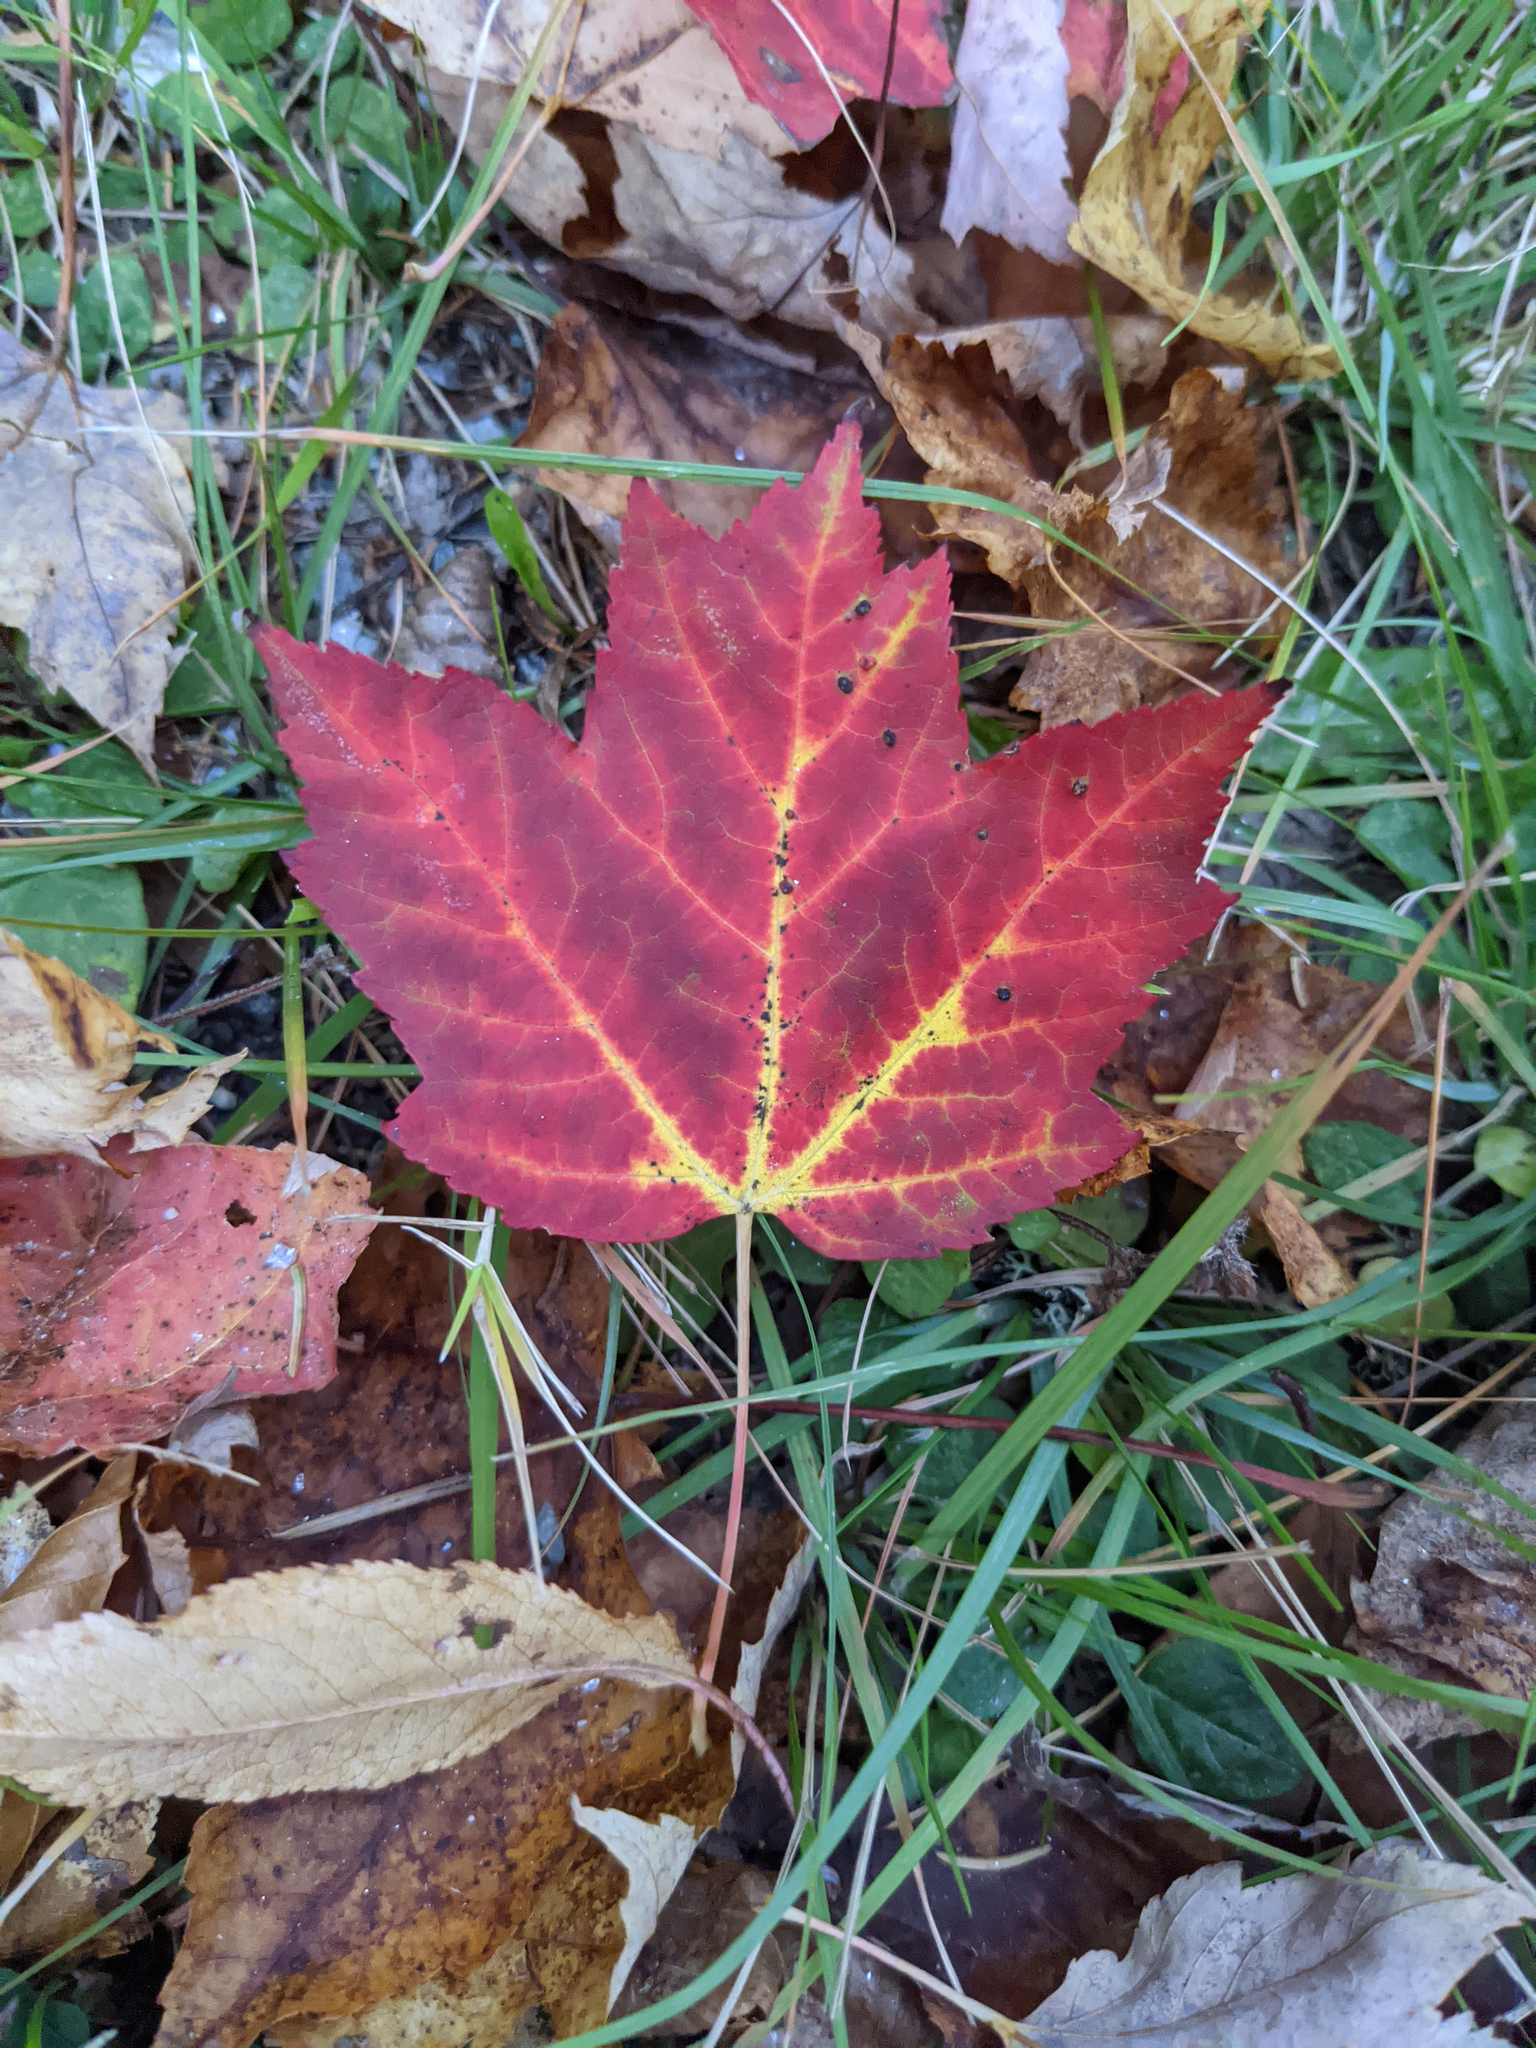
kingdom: Plantae
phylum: Tracheophyta
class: Magnoliopsida
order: Sapindales
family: Sapindaceae
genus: Acer
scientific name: Acer rubrum
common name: Red maple
